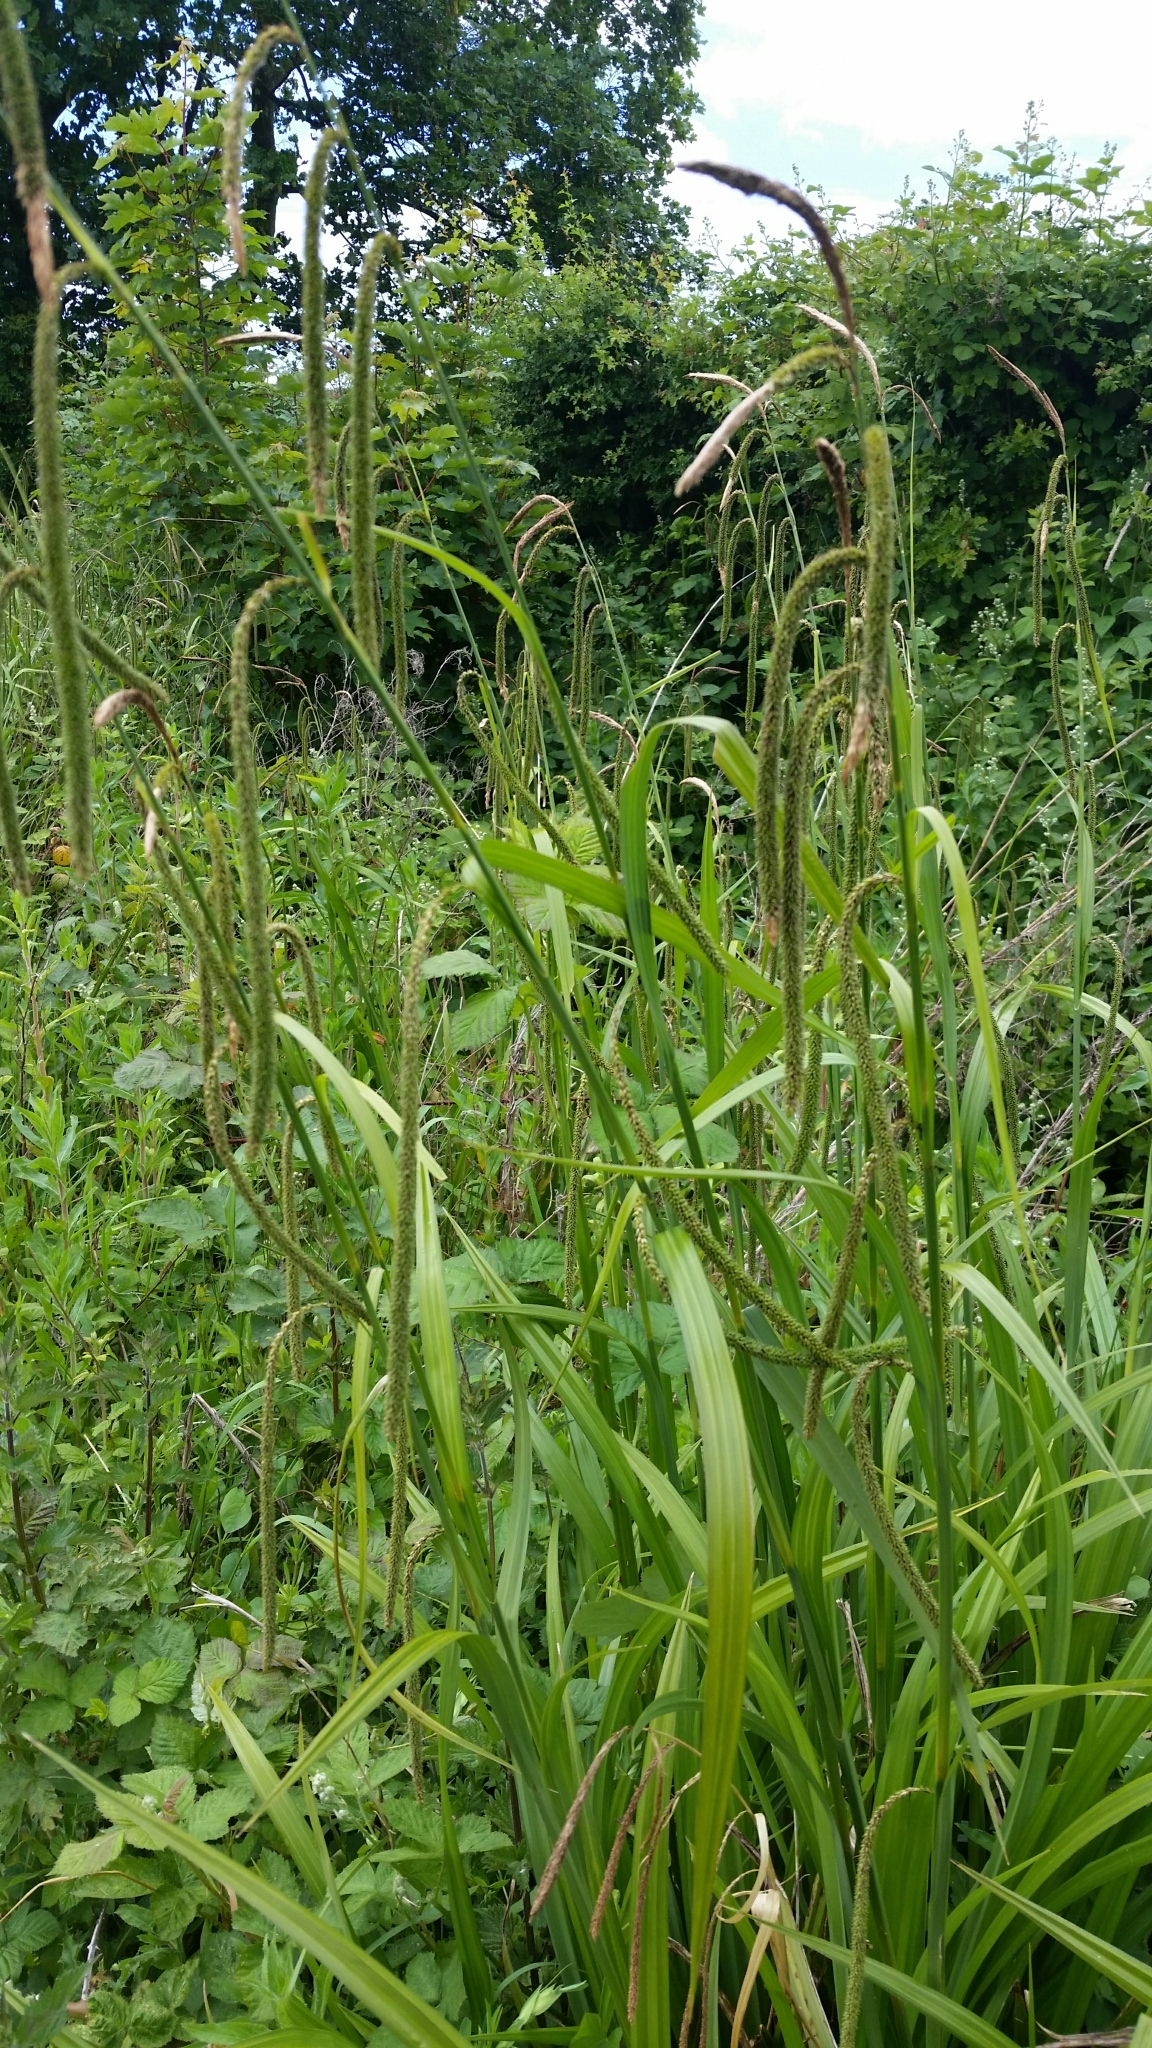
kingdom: Plantae
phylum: Tracheophyta
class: Liliopsida
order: Poales
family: Cyperaceae
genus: Carex
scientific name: Carex pendula
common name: Pendulous sedge
